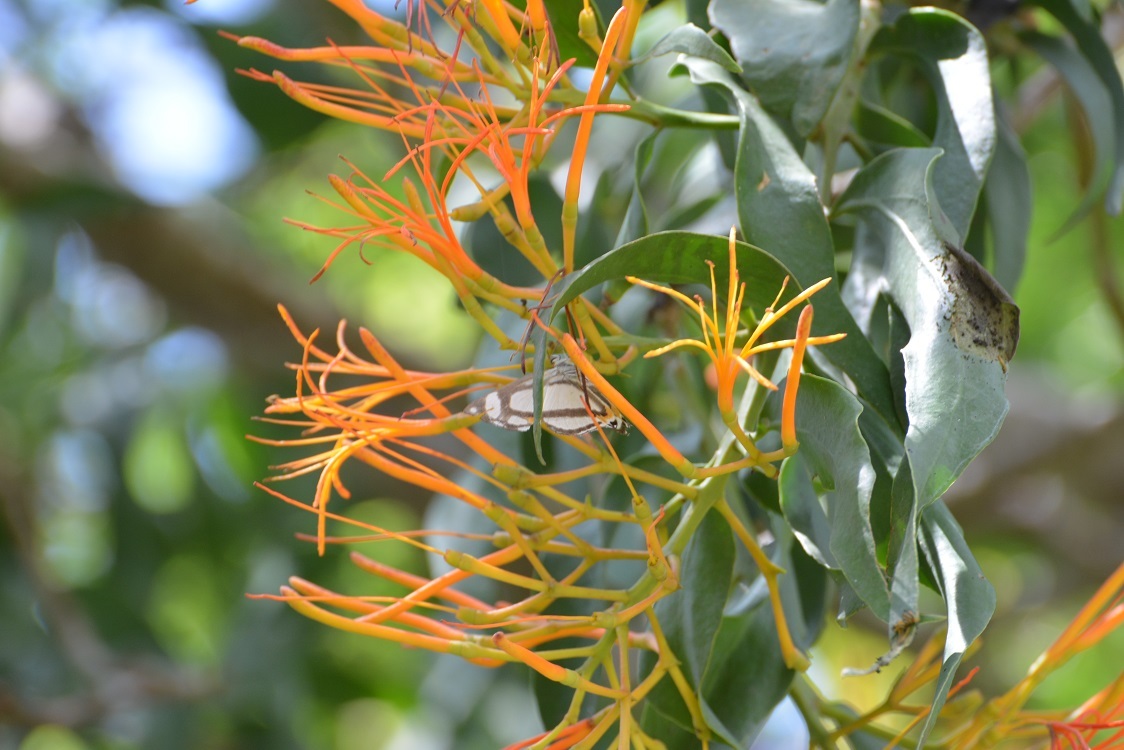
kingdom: Plantae
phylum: Tracheophyta
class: Magnoliopsida
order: Santalales
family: Loranthaceae
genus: Psittacanthus
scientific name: Psittacanthus calyculatus
